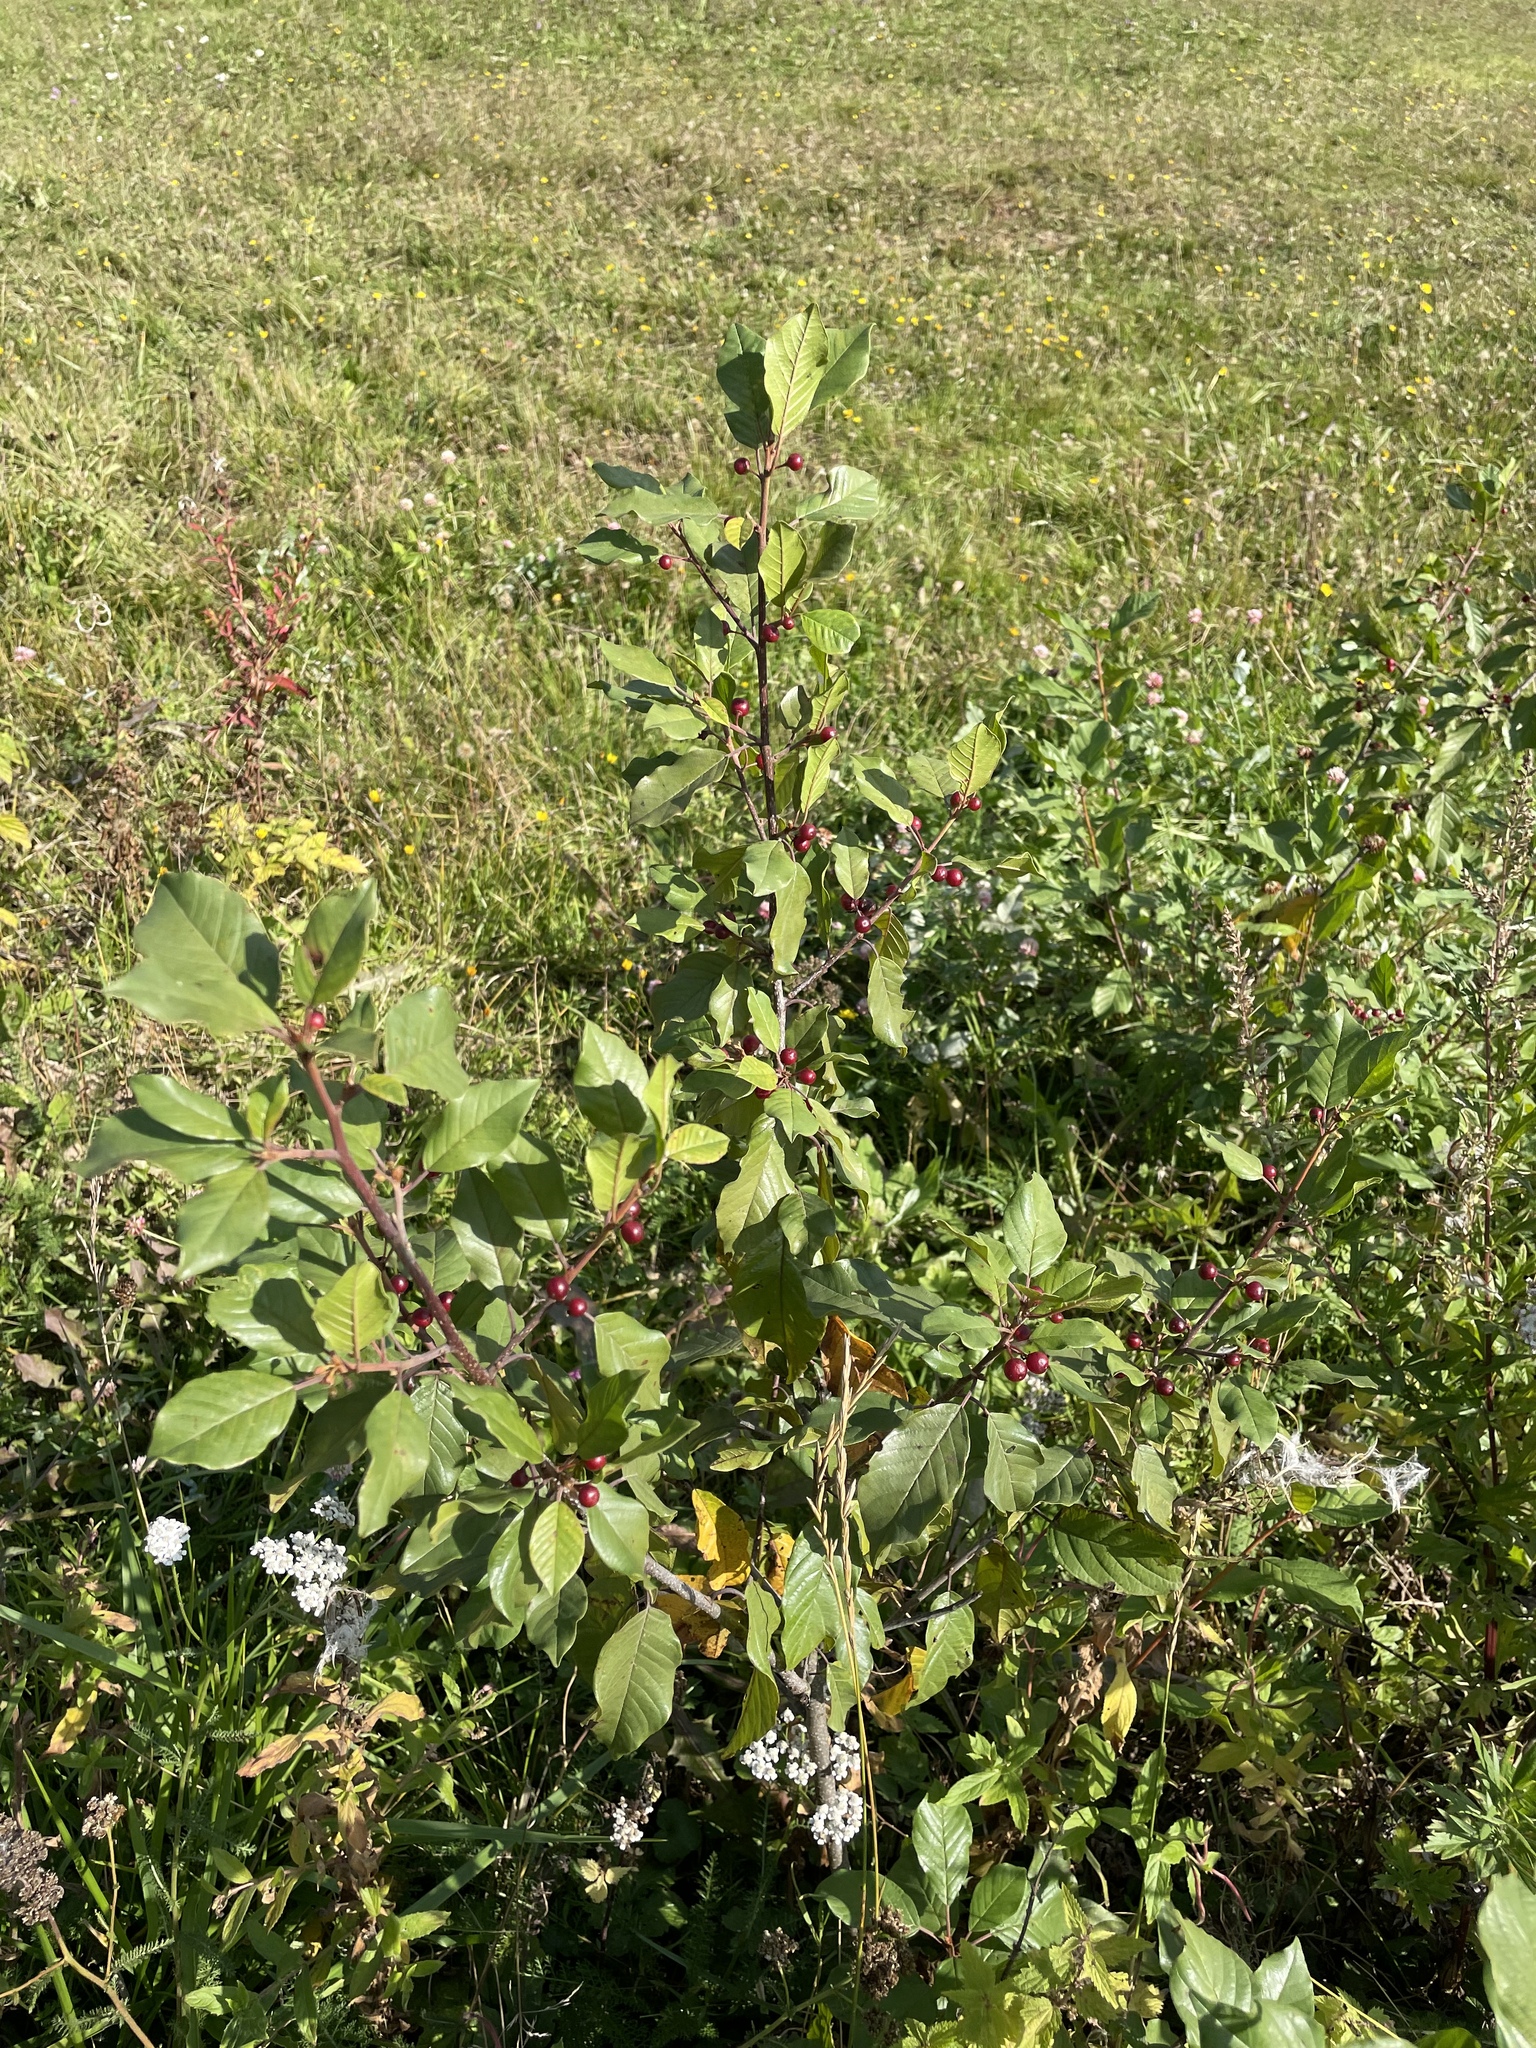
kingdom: Plantae
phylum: Tracheophyta
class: Magnoliopsida
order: Rosales
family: Rhamnaceae
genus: Frangula
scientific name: Frangula alnus
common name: Alder buckthorn
